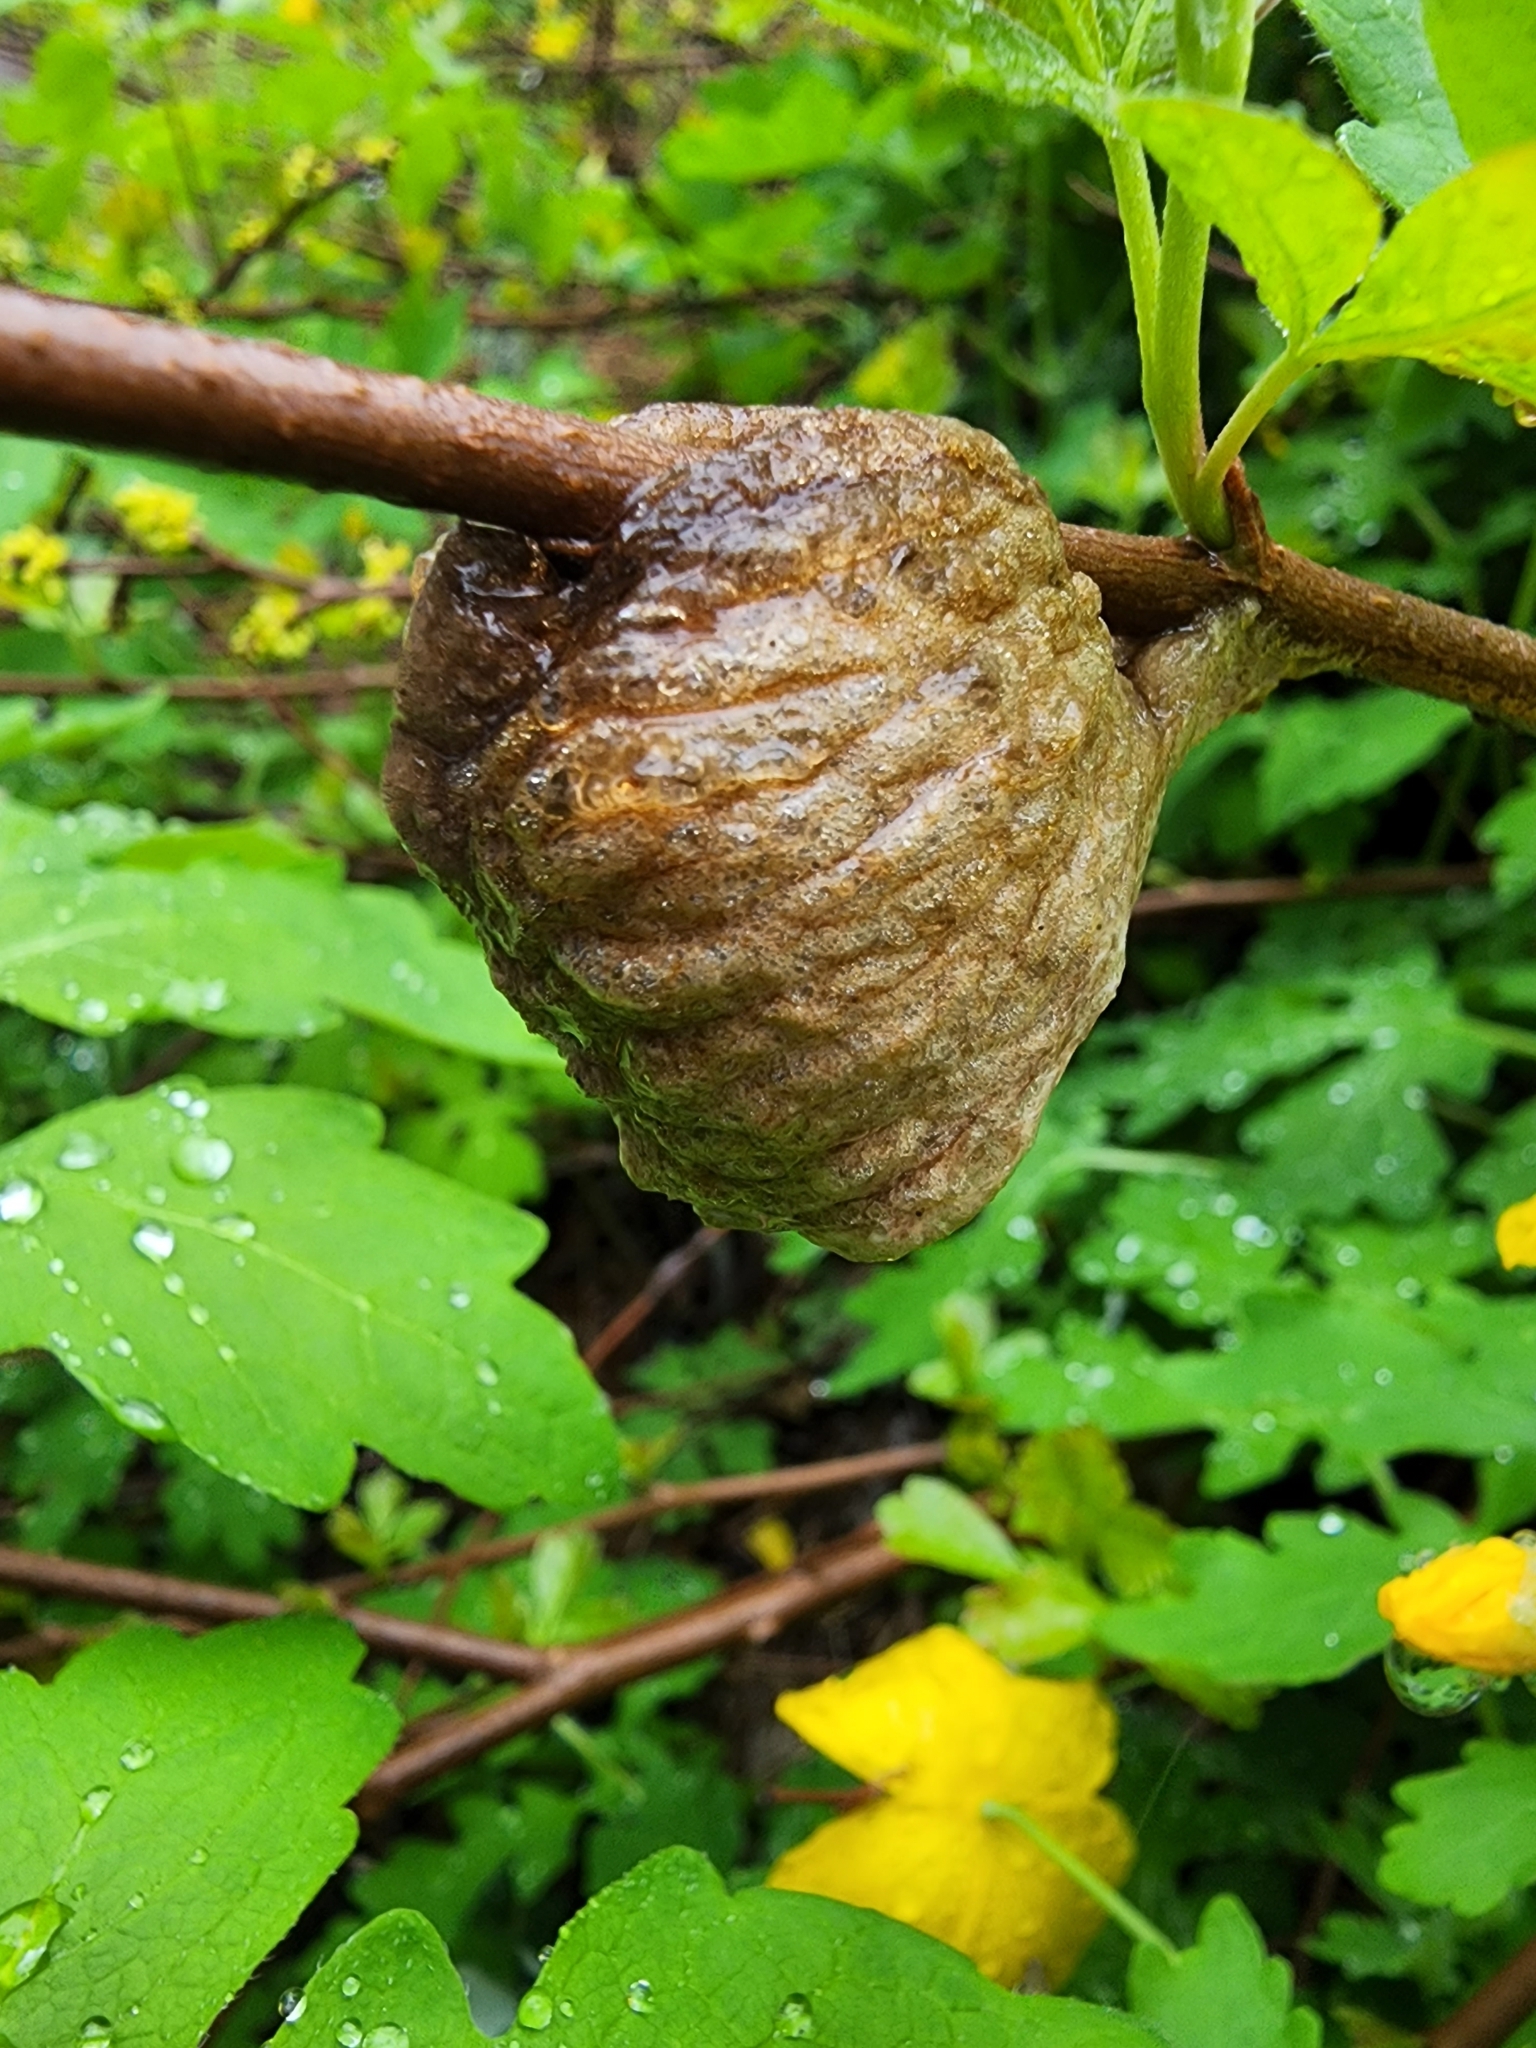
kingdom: Animalia
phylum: Arthropoda
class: Insecta
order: Mantodea
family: Mantidae
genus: Tenodera
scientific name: Tenodera sinensis
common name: Chinese mantis
